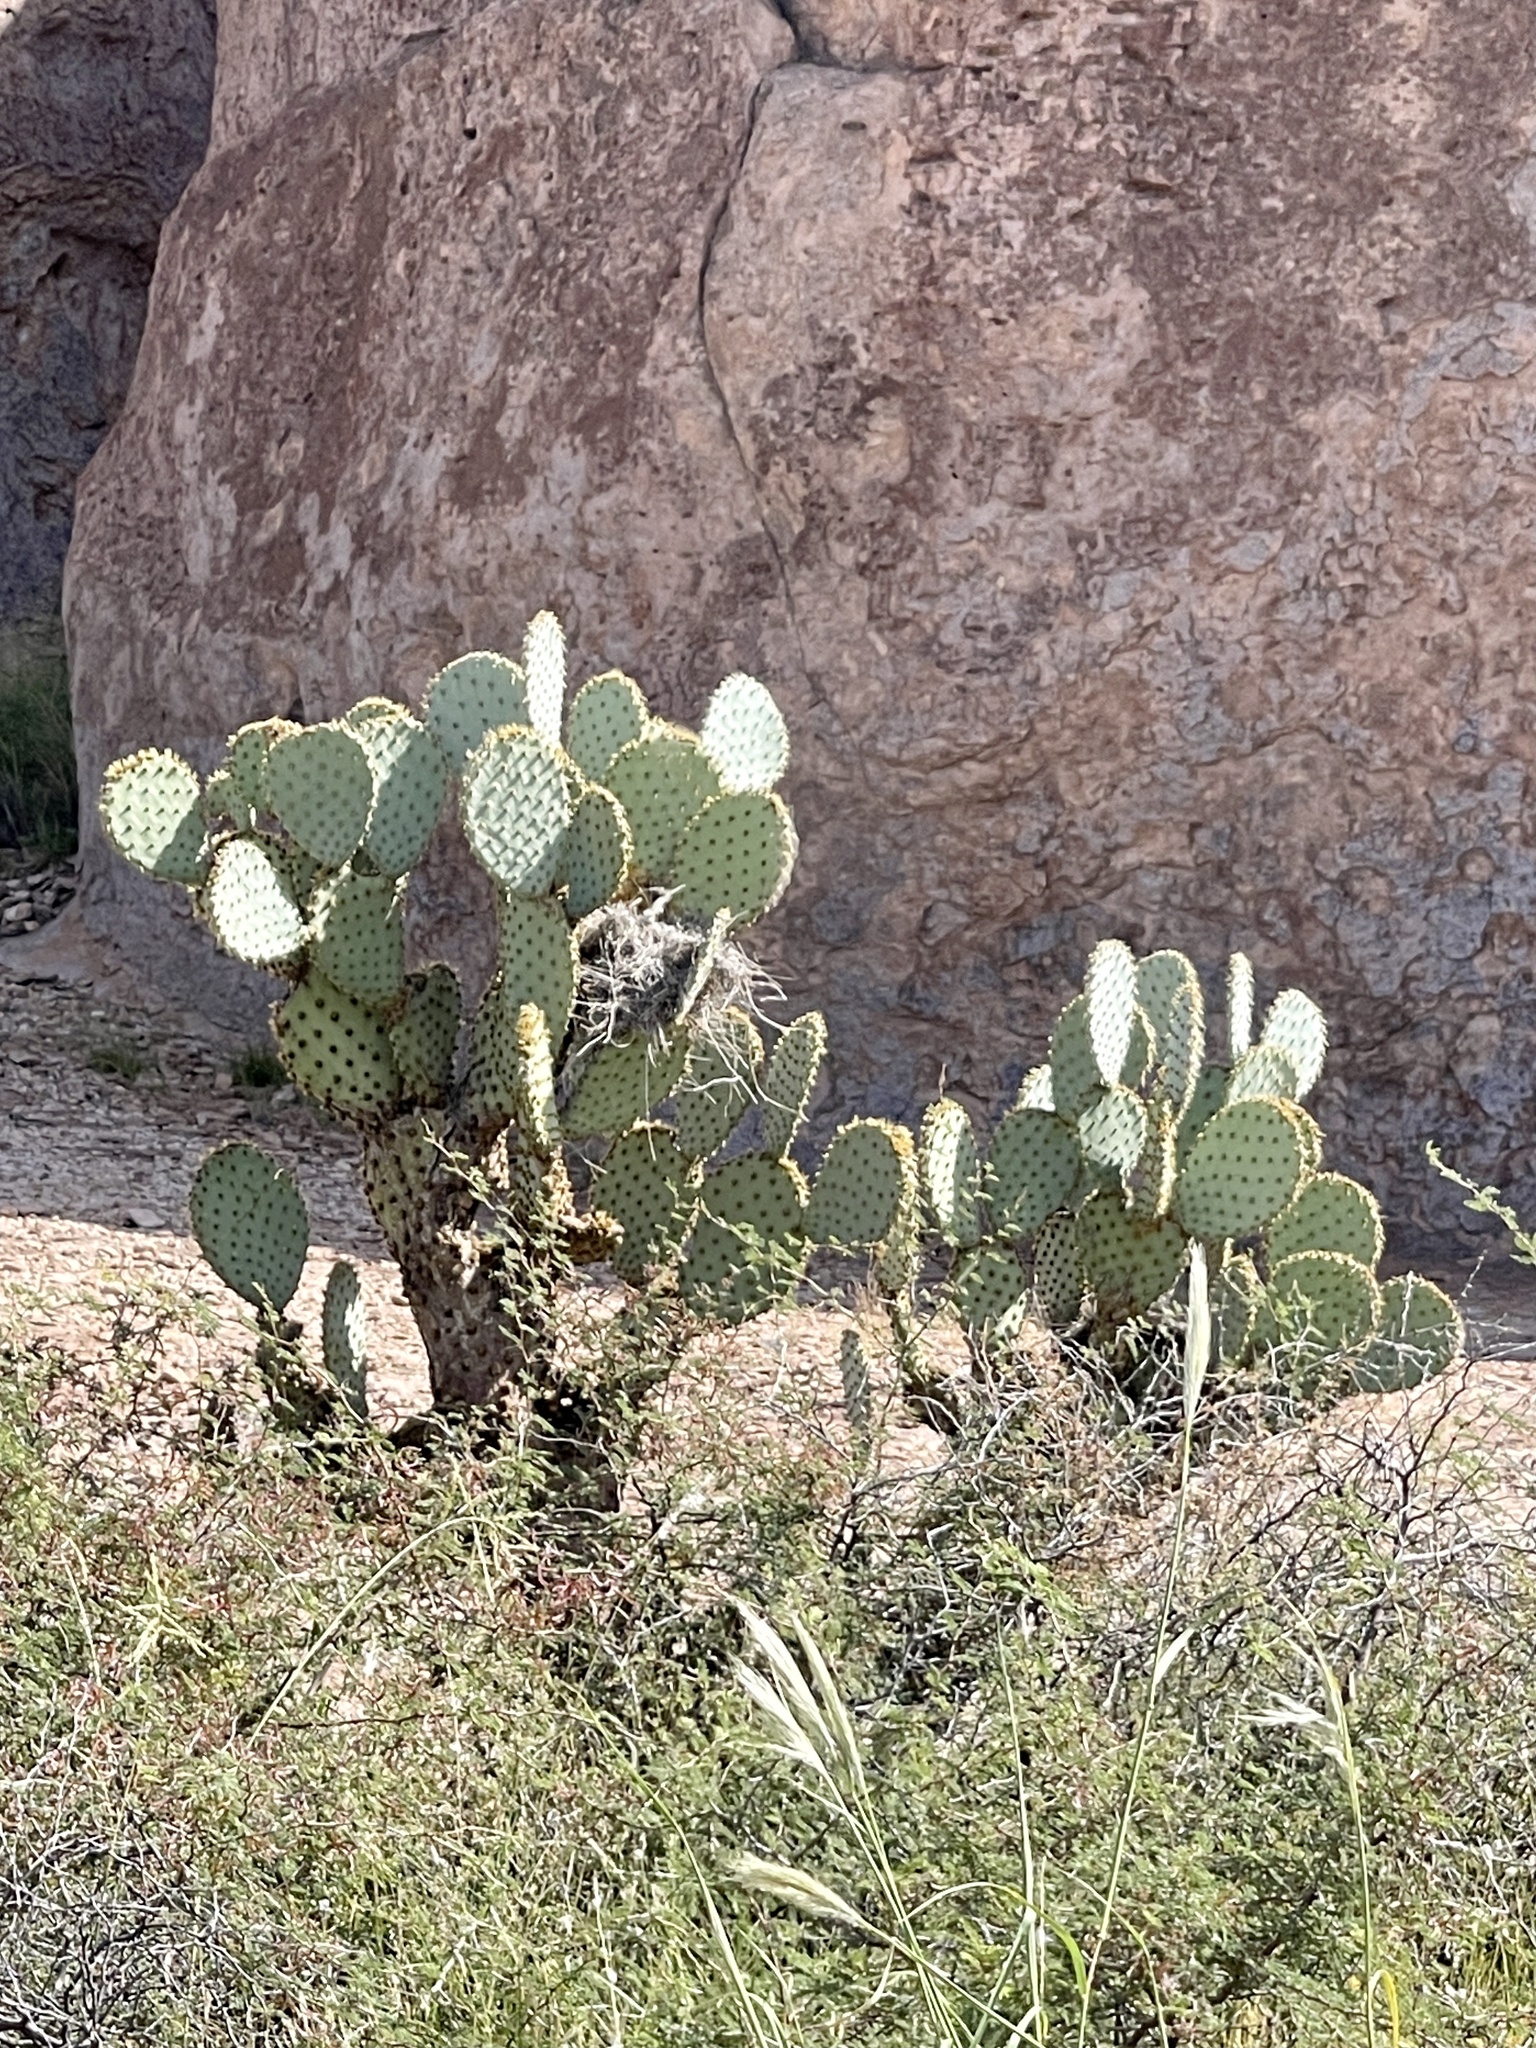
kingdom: Plantae
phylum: Tracheophyta
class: Magnoliopsida
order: Caryophyllales
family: Cactaceae
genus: Opuntia
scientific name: Opuntia chlorotica
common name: Dollar-joint prickly-pear
